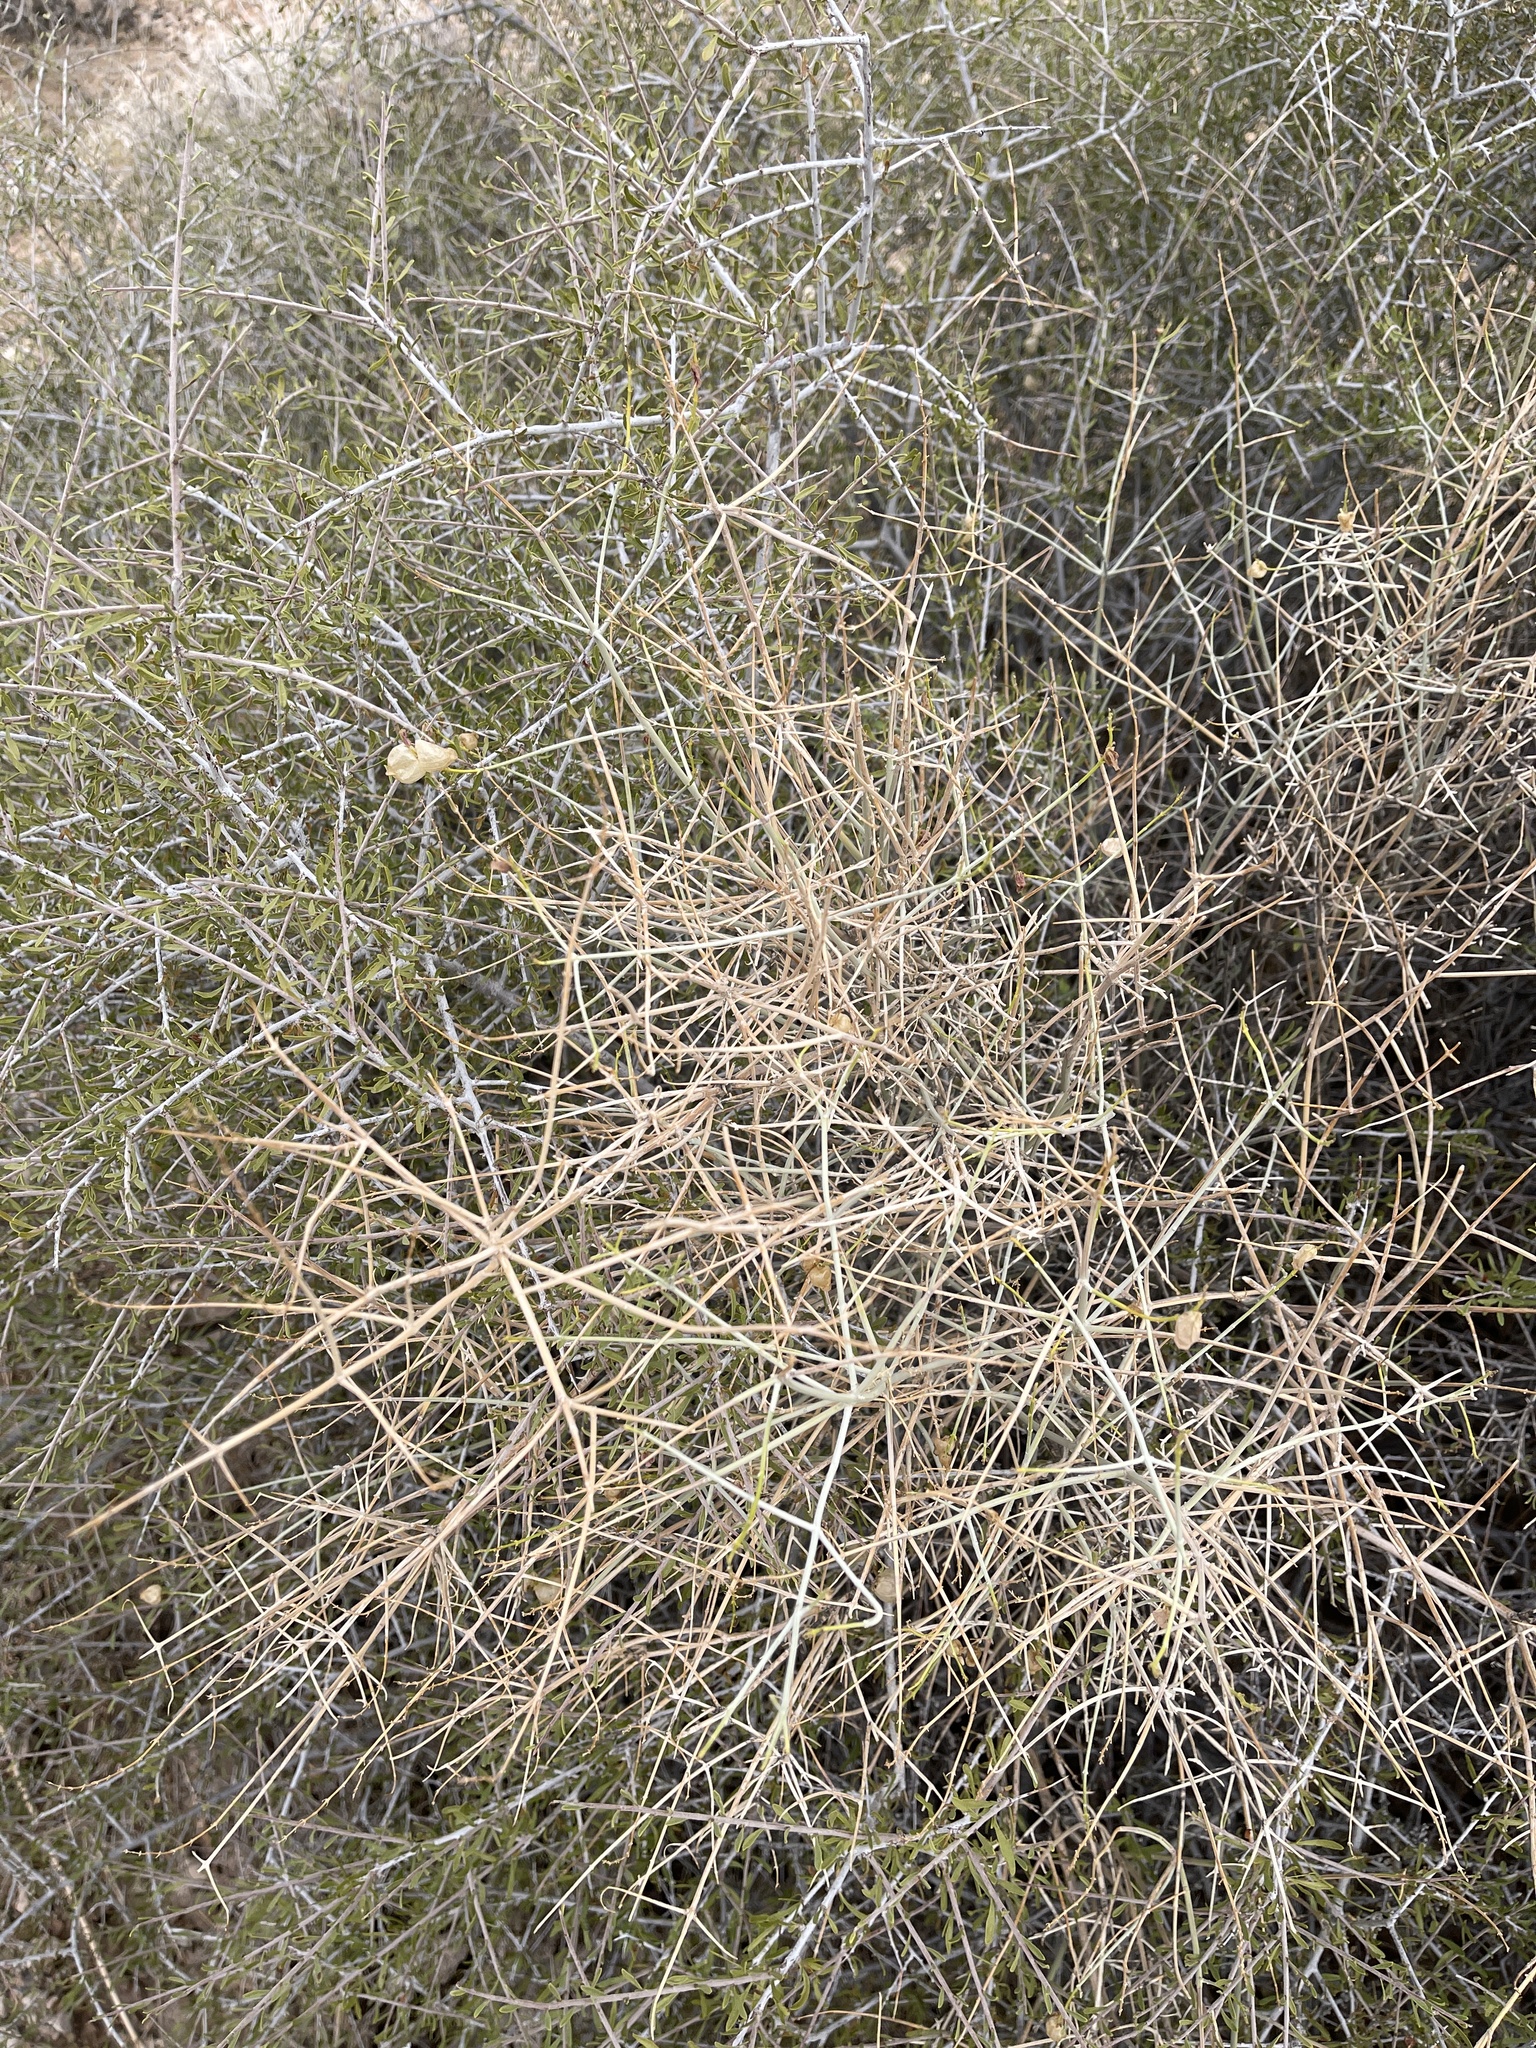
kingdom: Plantae
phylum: Tracheophyta
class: Magnoliopsida
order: Lamiales
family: Lamiaceae
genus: Scutellaria
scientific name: Scutellaria mexicana
